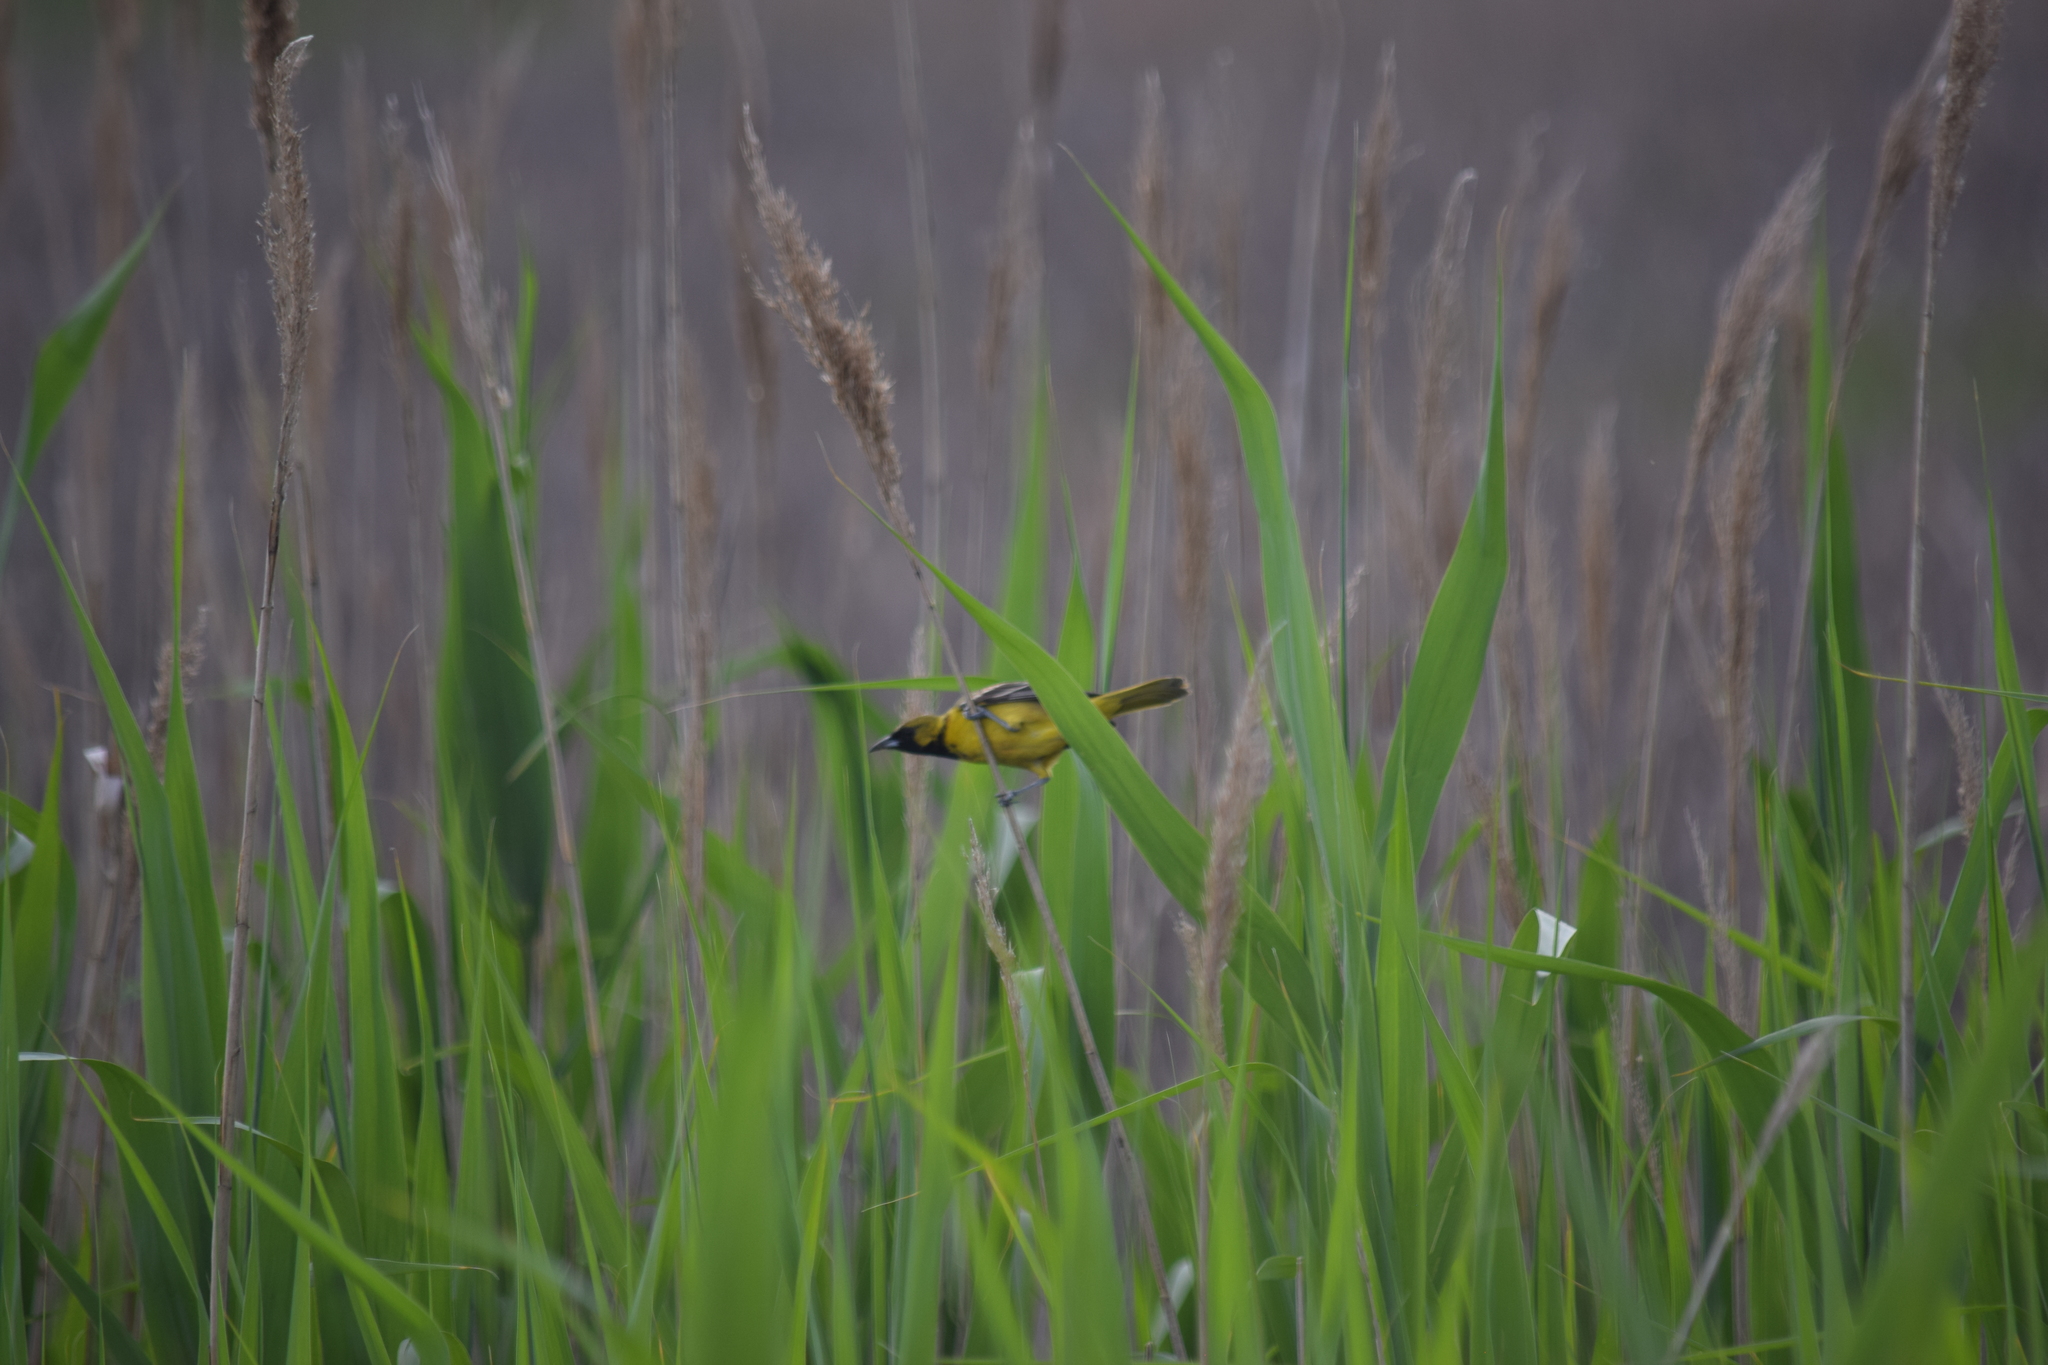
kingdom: Animalia
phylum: Chordata
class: Aves
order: Passeriformes
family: Icteridae
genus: Icterus
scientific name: Icterus spurius
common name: Orchard oriole
